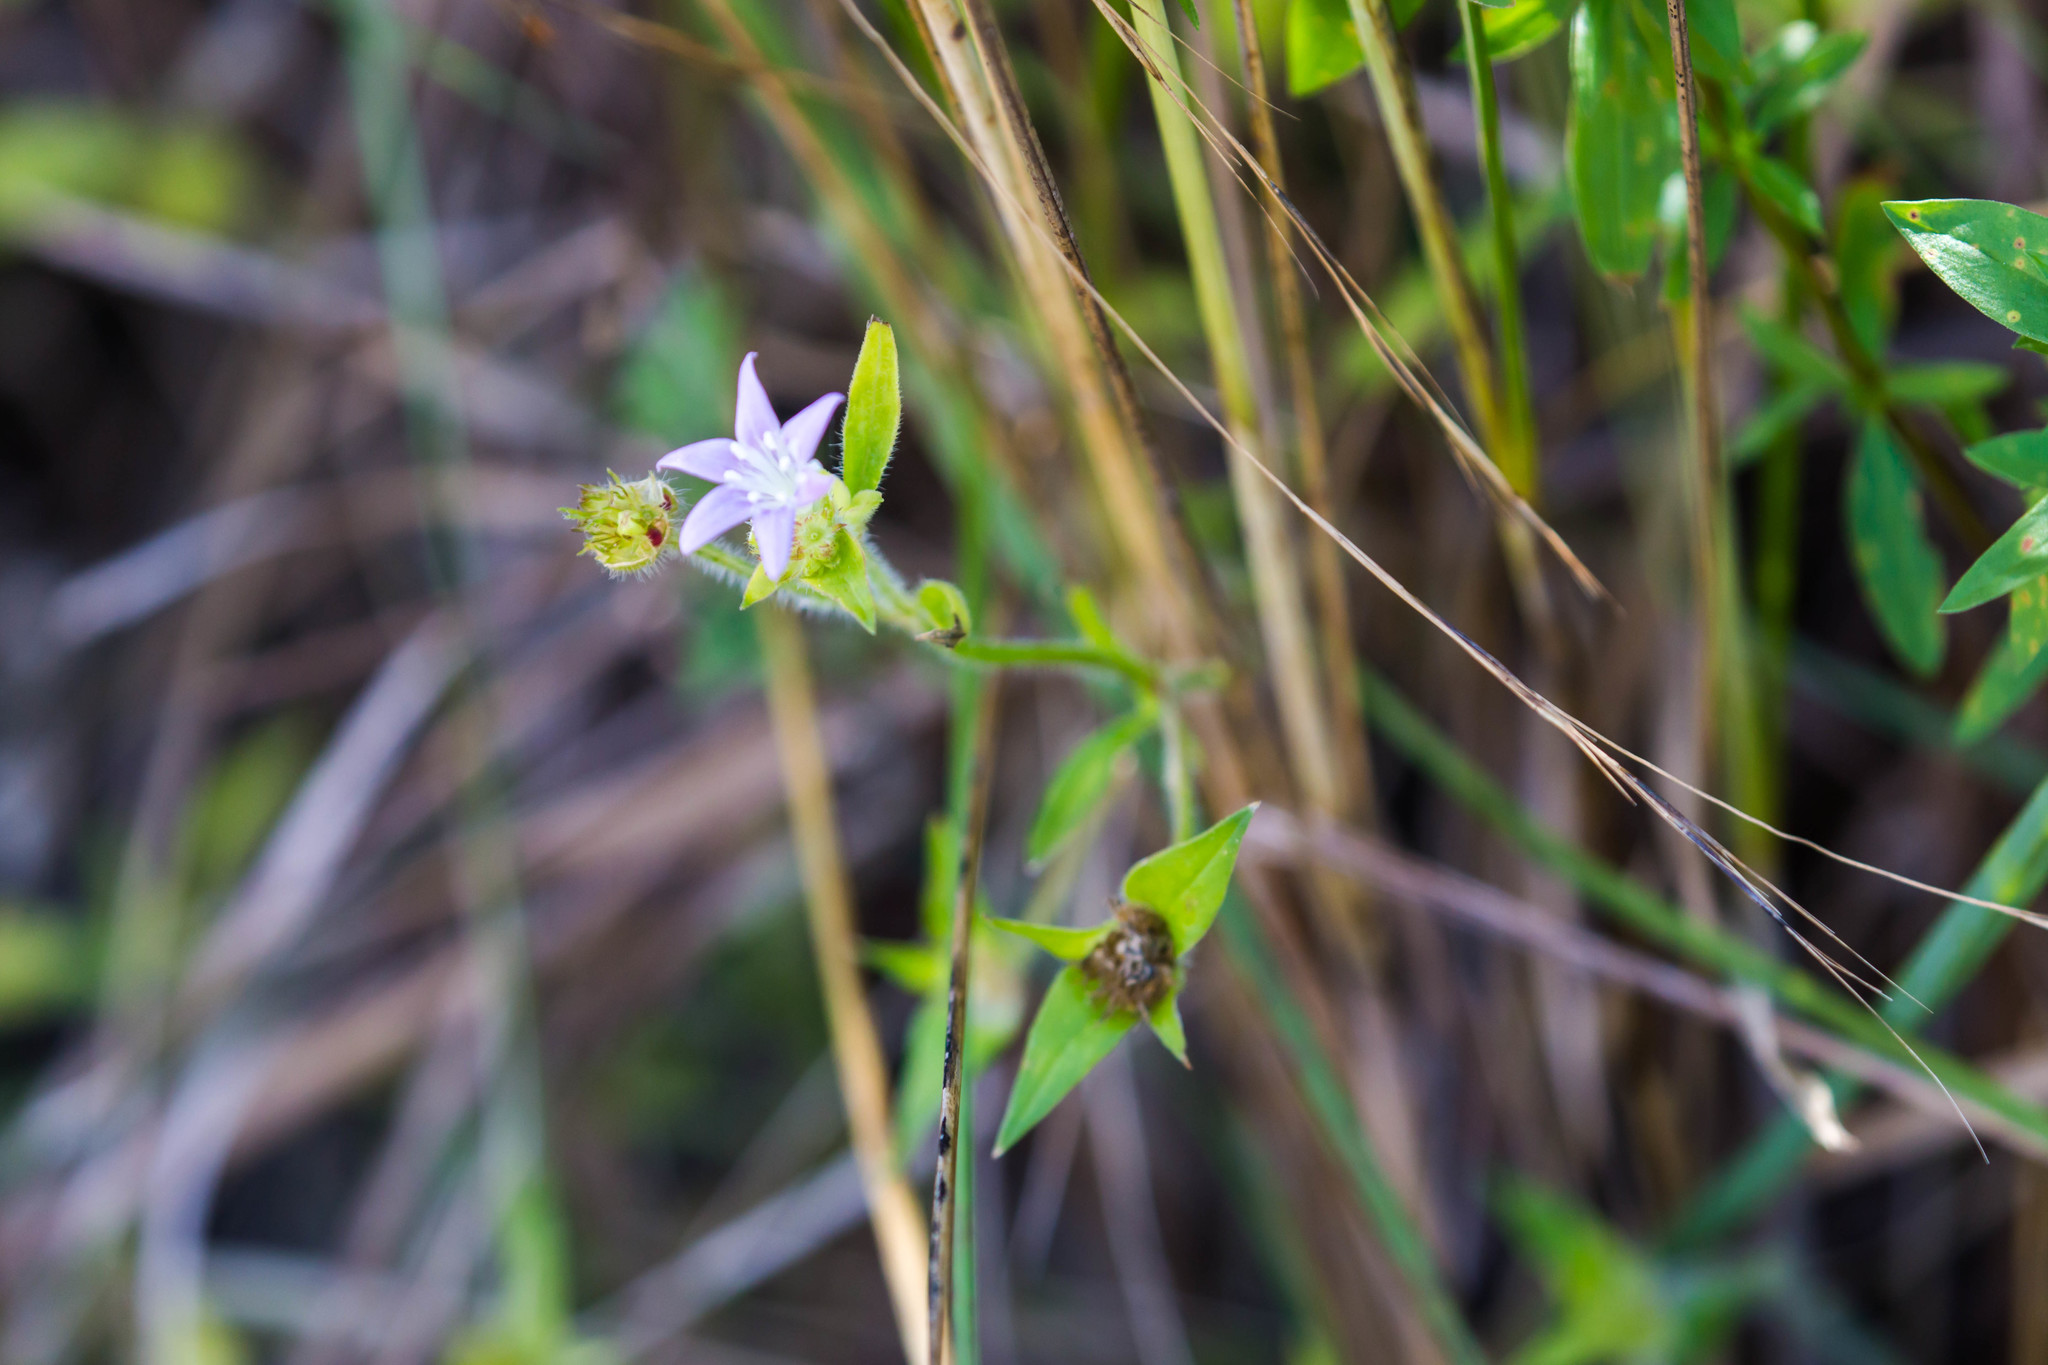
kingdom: Plantae
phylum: Tracheophyta
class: Magnoliopsida
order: Gentianales
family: Rubiaceae
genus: Richardia
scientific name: Richardia grandiflora
